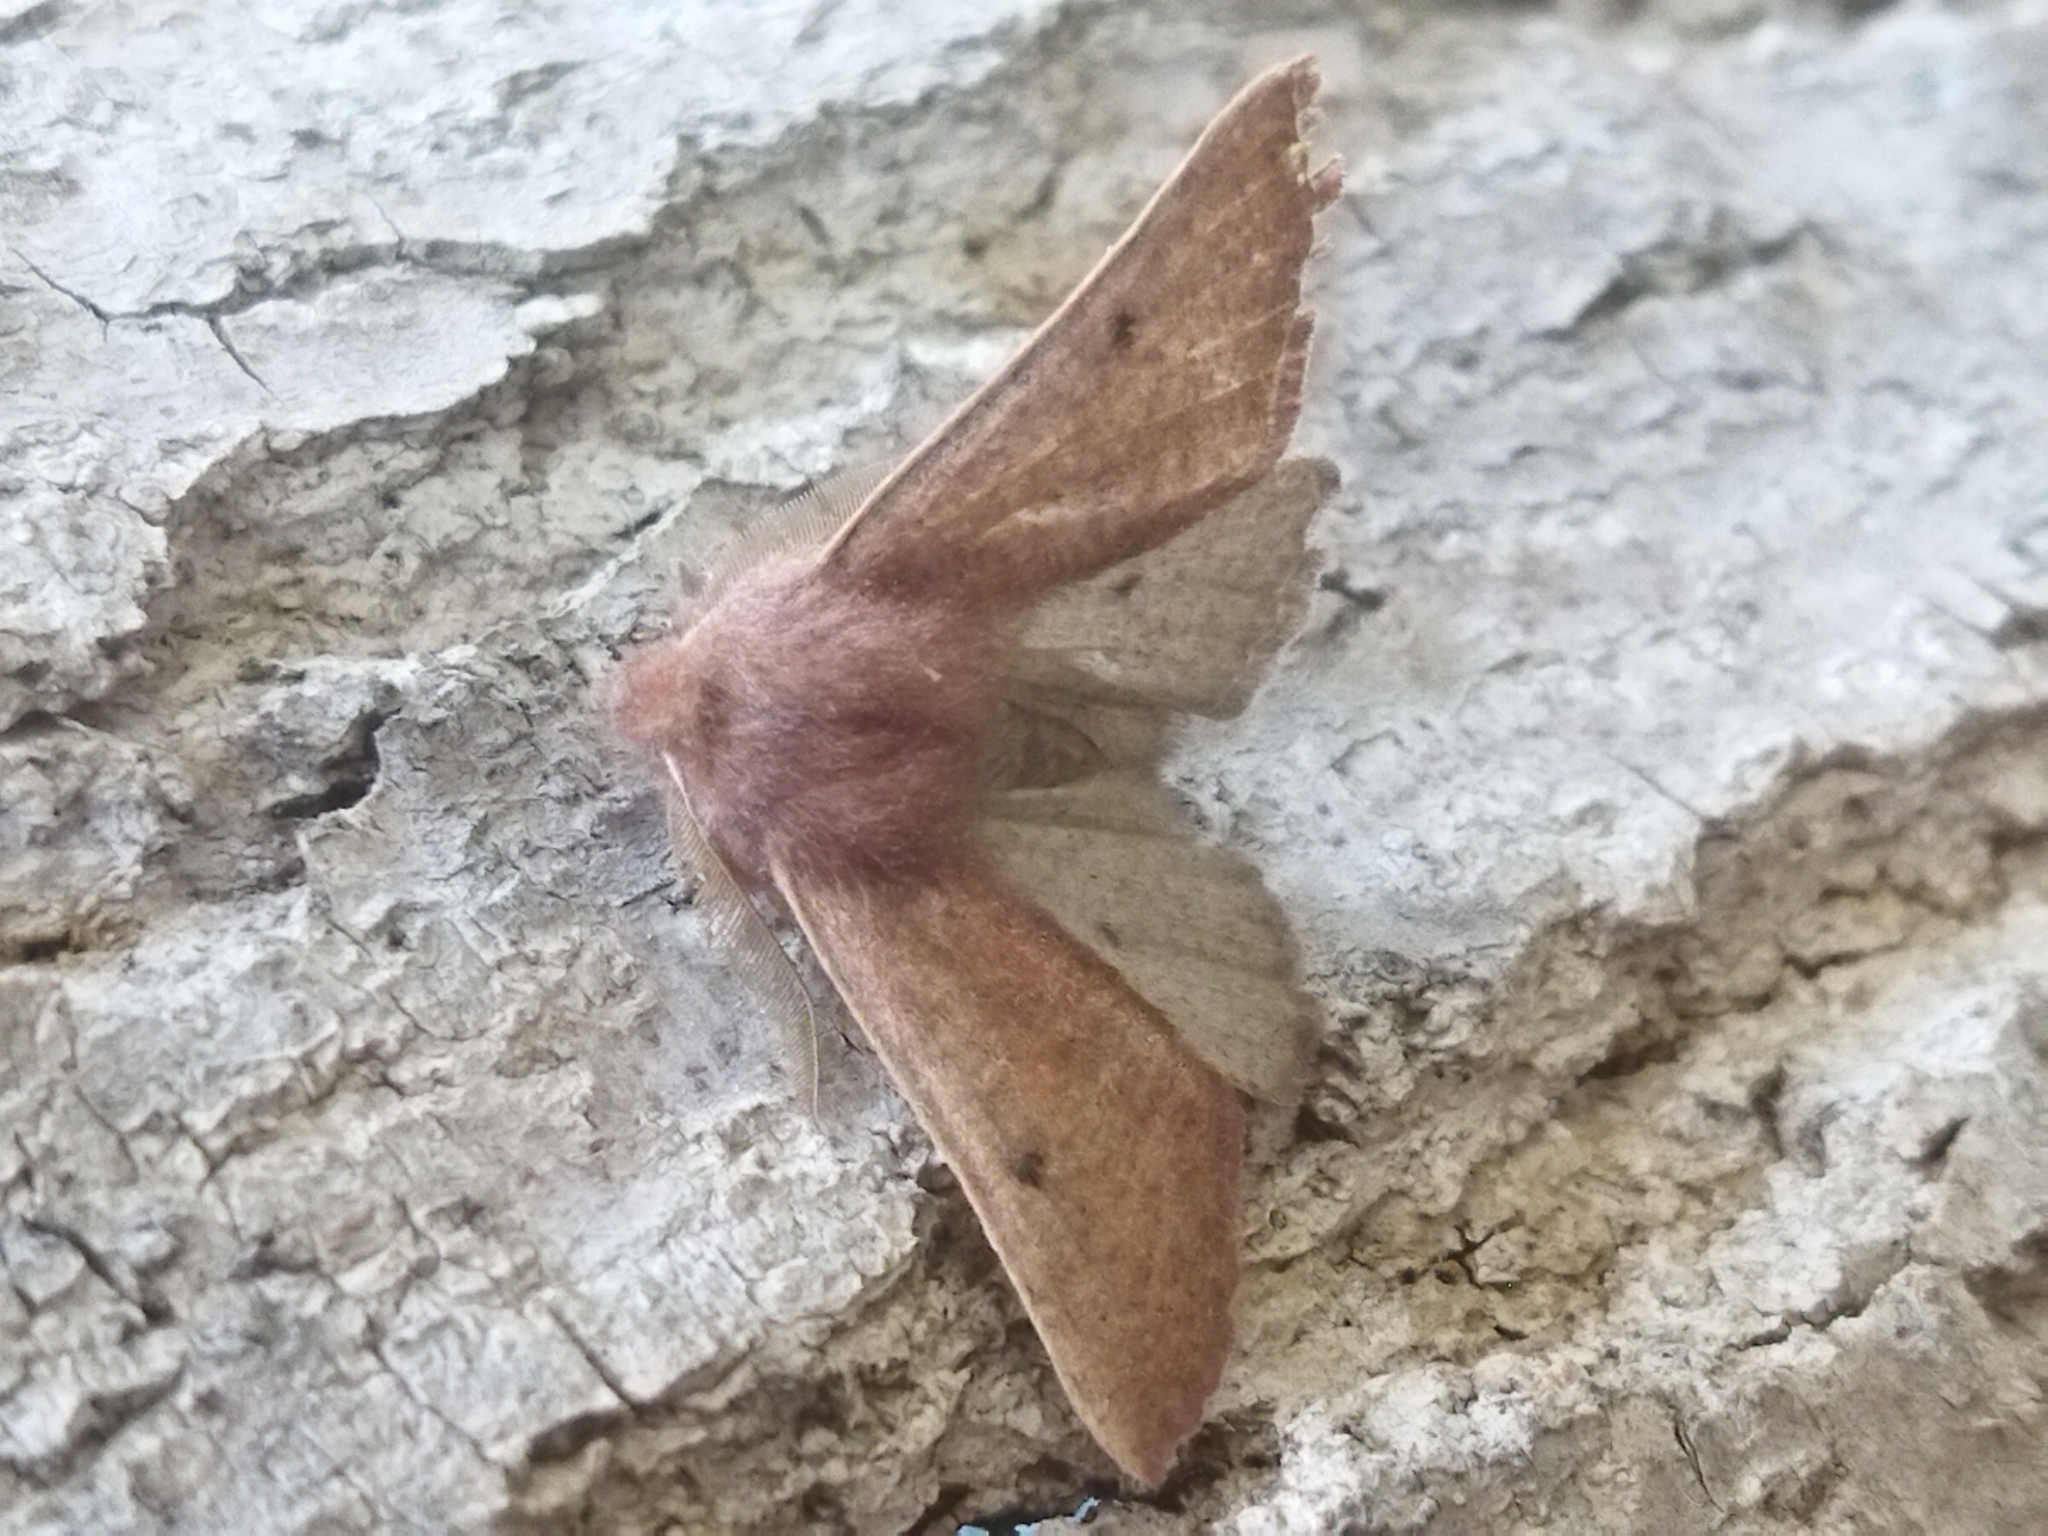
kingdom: Animalia
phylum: Arthropoda
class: Insecta
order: Lepidoptera
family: Geometridae
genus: Dasycorsa
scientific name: Dasycorsa modesta
